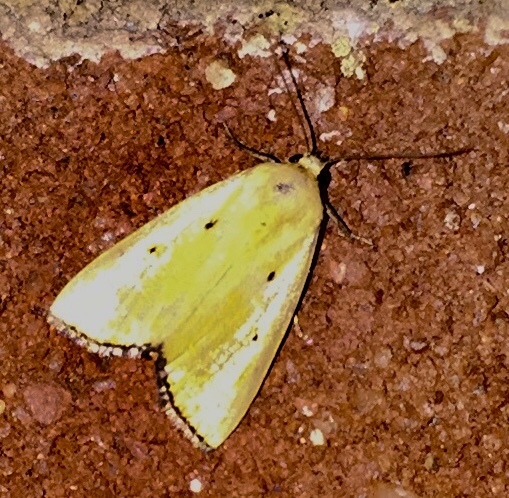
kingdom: Animalia
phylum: Arthropoda
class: Insecta
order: Lepidoptera
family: Noctuidae
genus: Marimatha
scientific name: Marimatha nigrofimbria
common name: Black-bordered lemon moth
